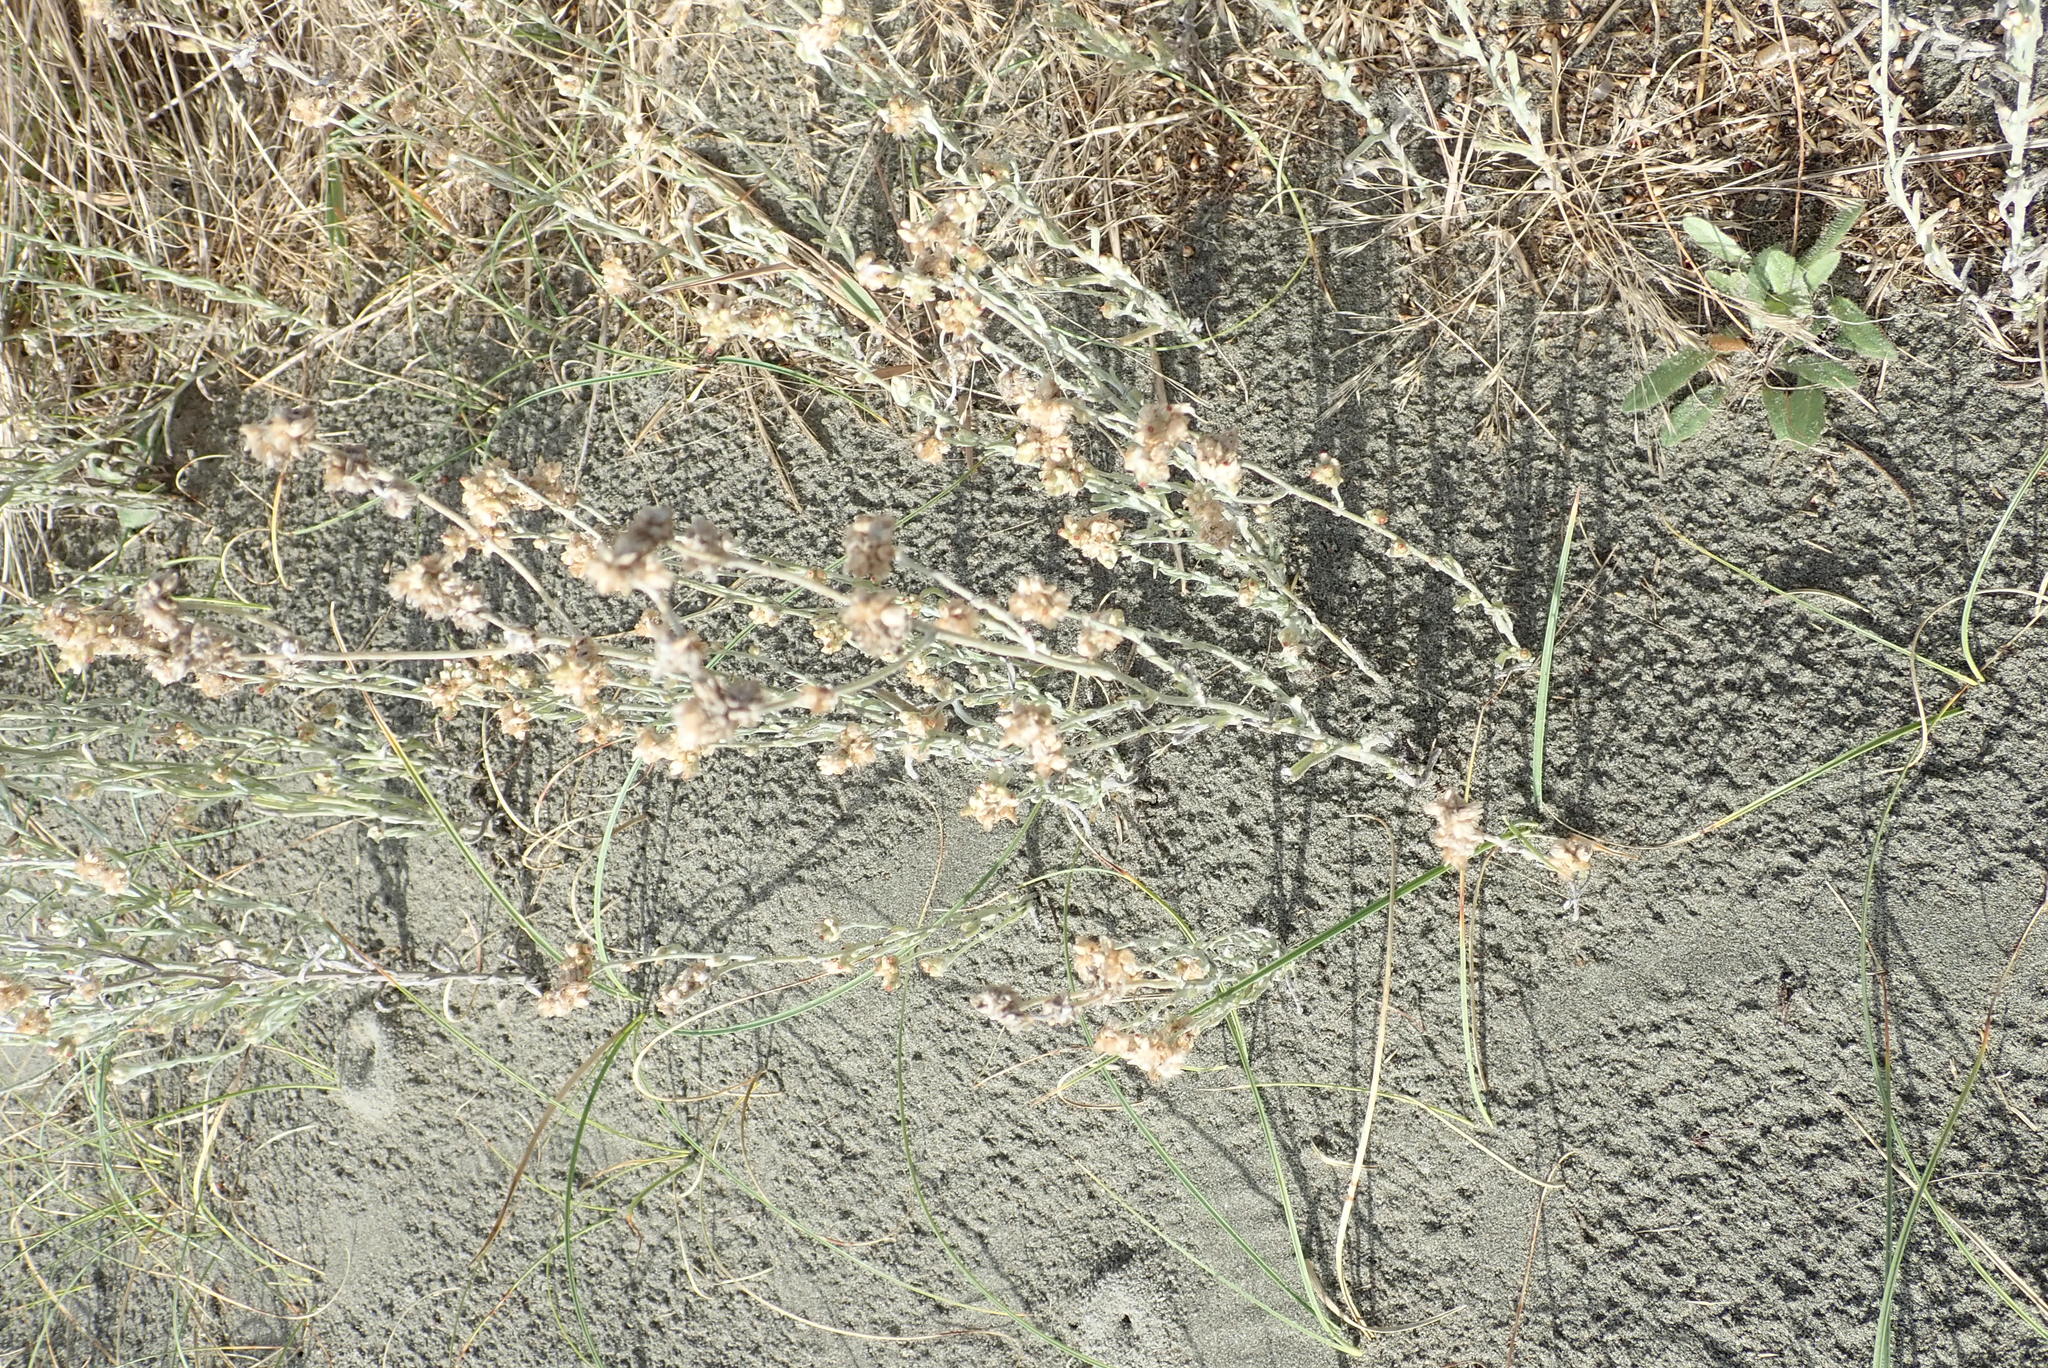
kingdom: Plantae
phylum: Tracheophyta
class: Magnoliopsida
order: Asterales
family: Asteraceae
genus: Helichrysum
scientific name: Helichrysum luteoalbum
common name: Daisy
